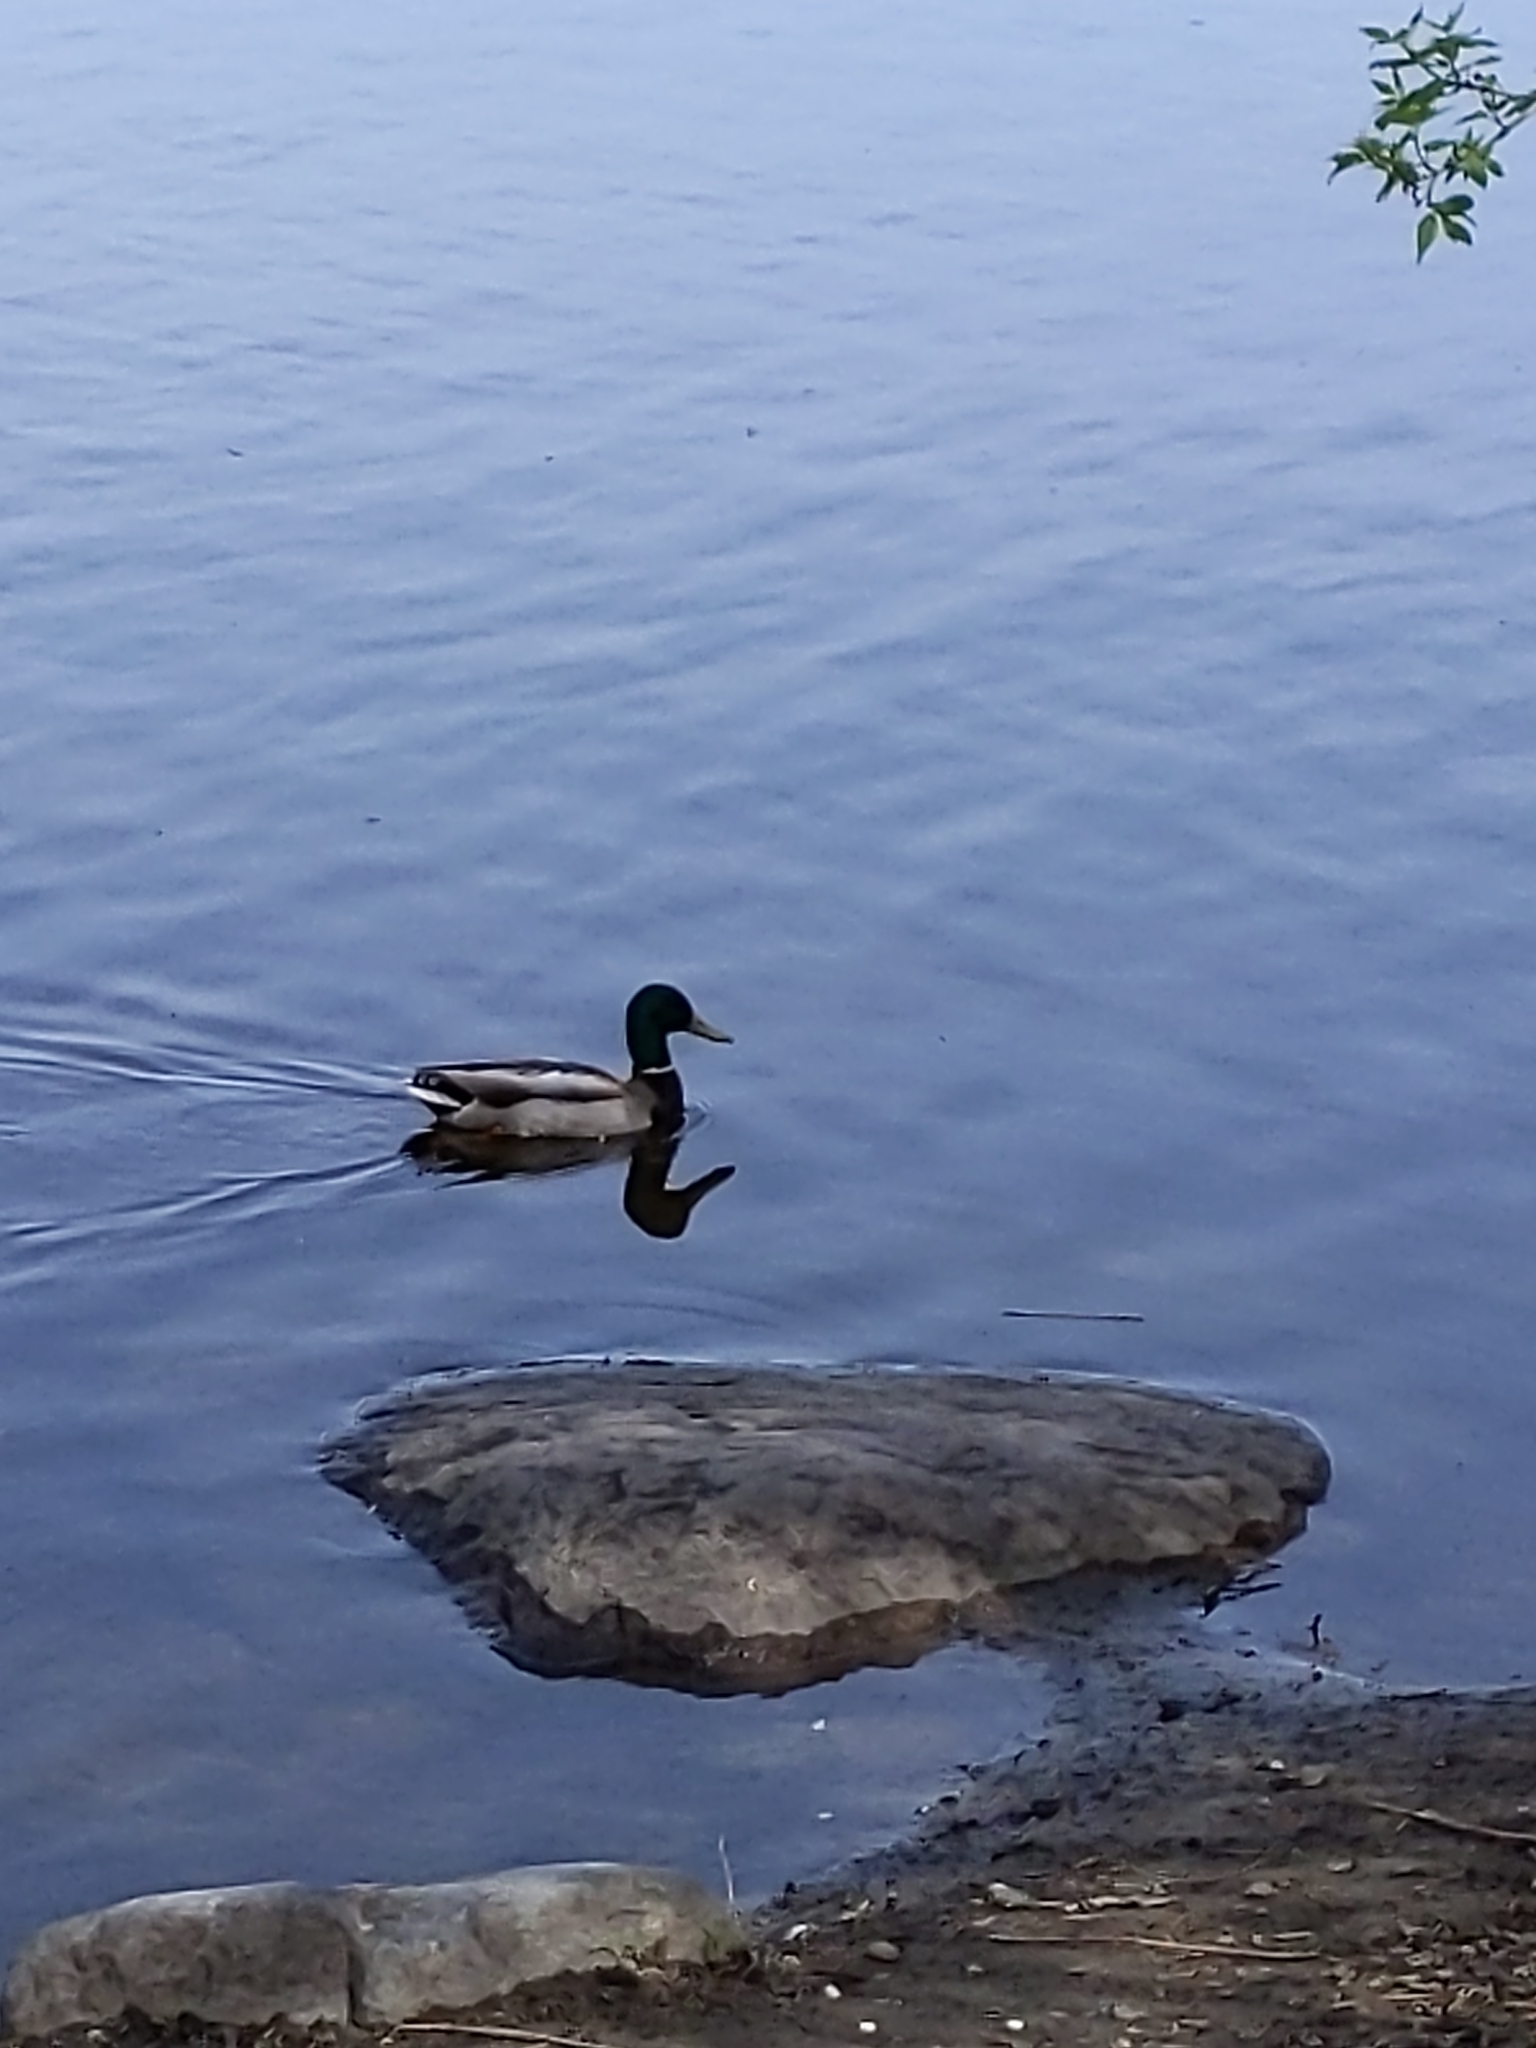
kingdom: Animalia
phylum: Chordata
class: Aves
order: Anseriformes
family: Anatidae
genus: Anas
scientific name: Anas platyrhynchos
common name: Mallard
